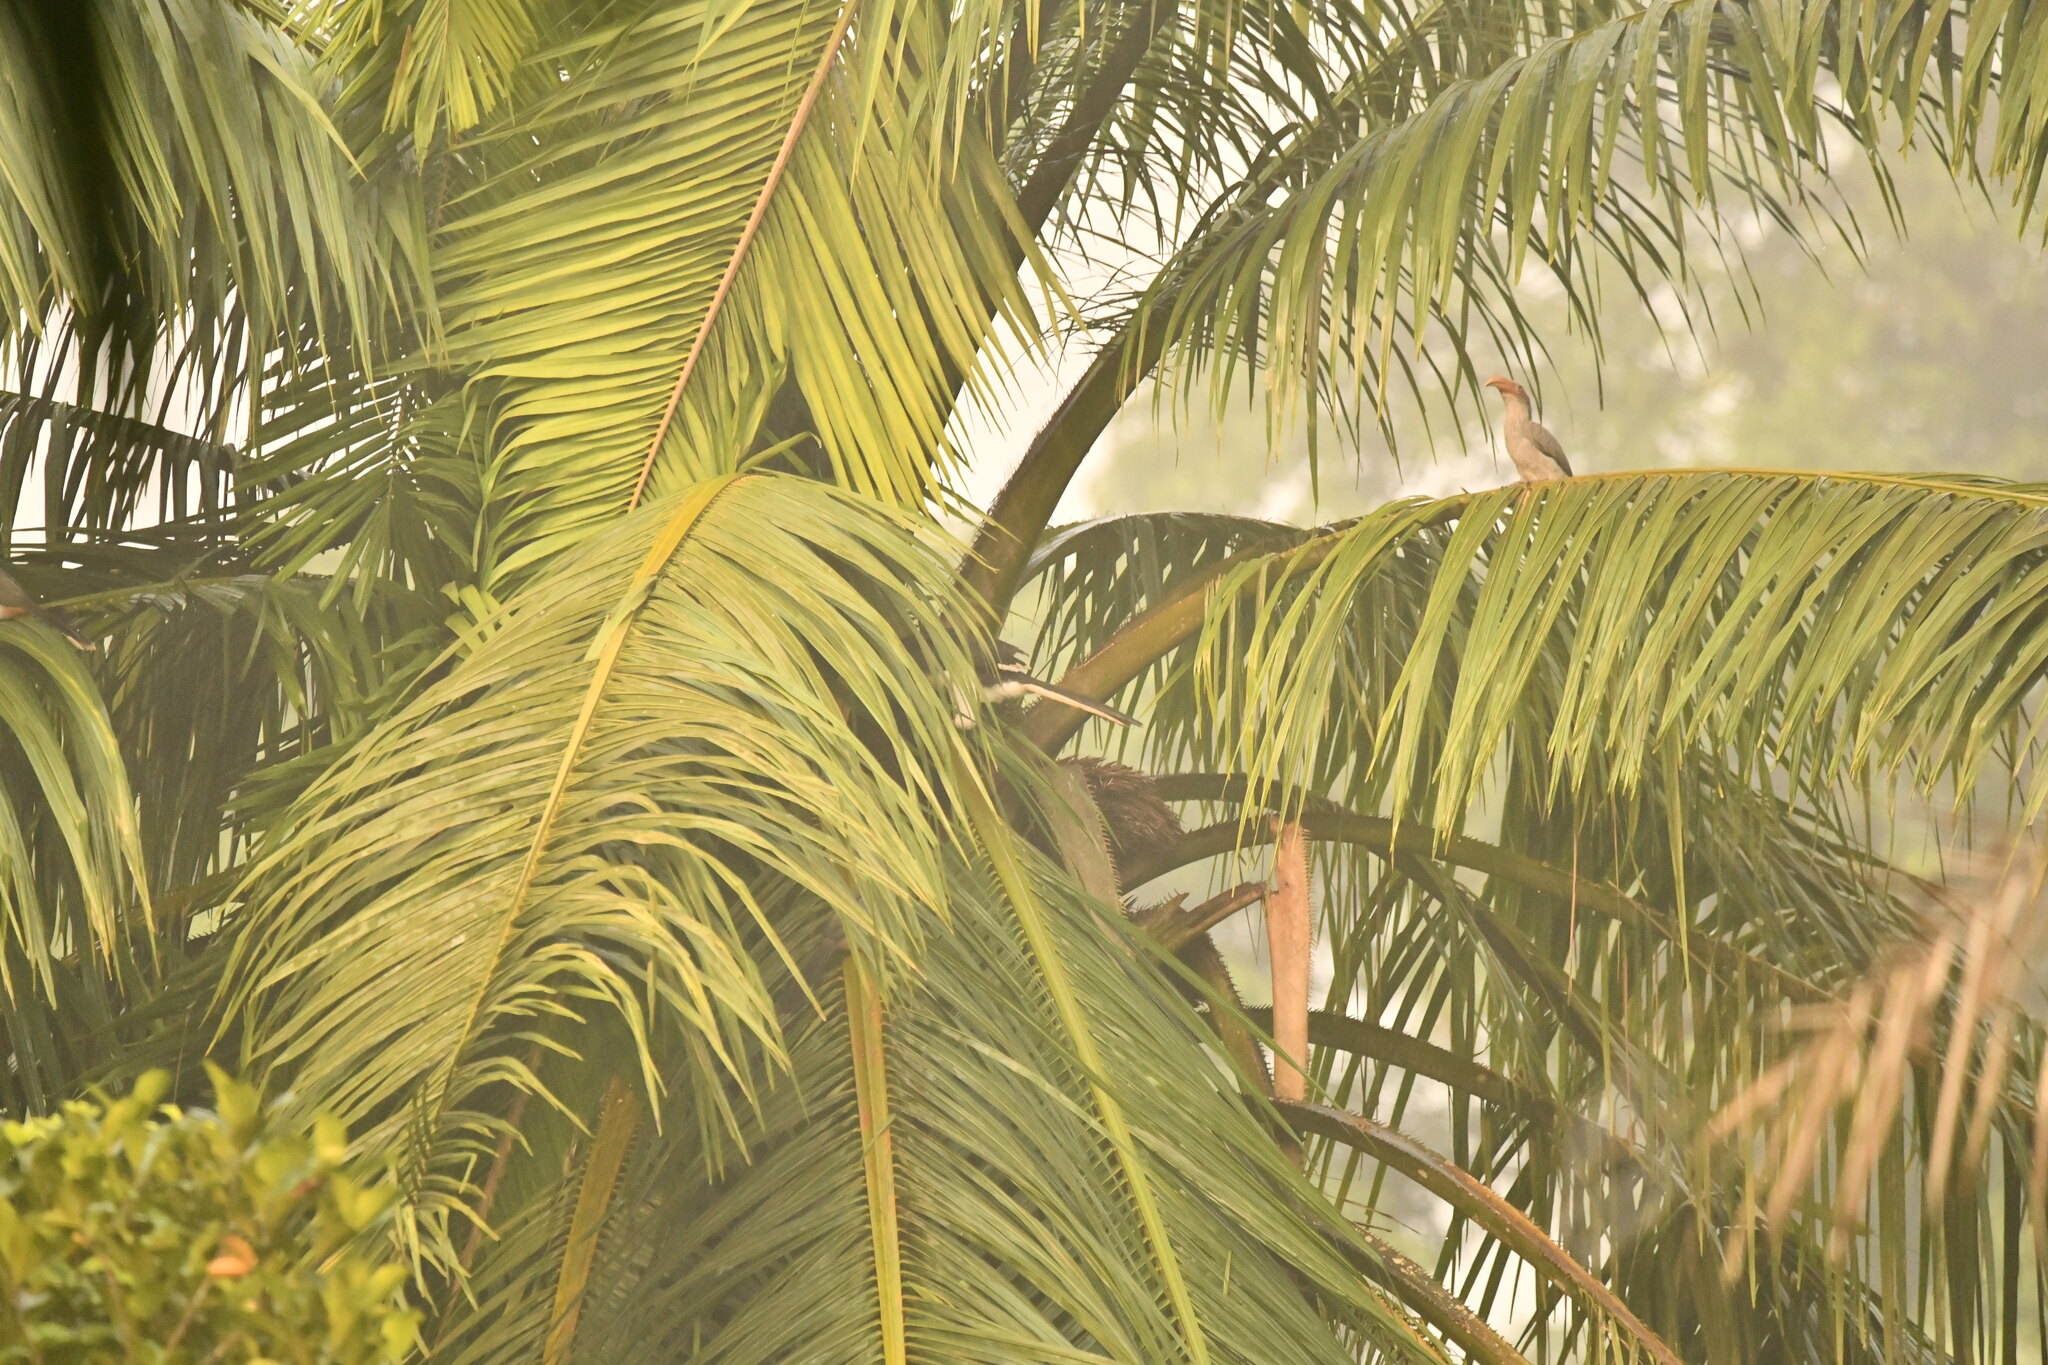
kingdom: Animalia
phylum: Chordata
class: Aves
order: Bucerotiformes
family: Bucerotidae
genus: Ocyceros
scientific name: Ocyceros griseus
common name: Malabar grey hornbill
